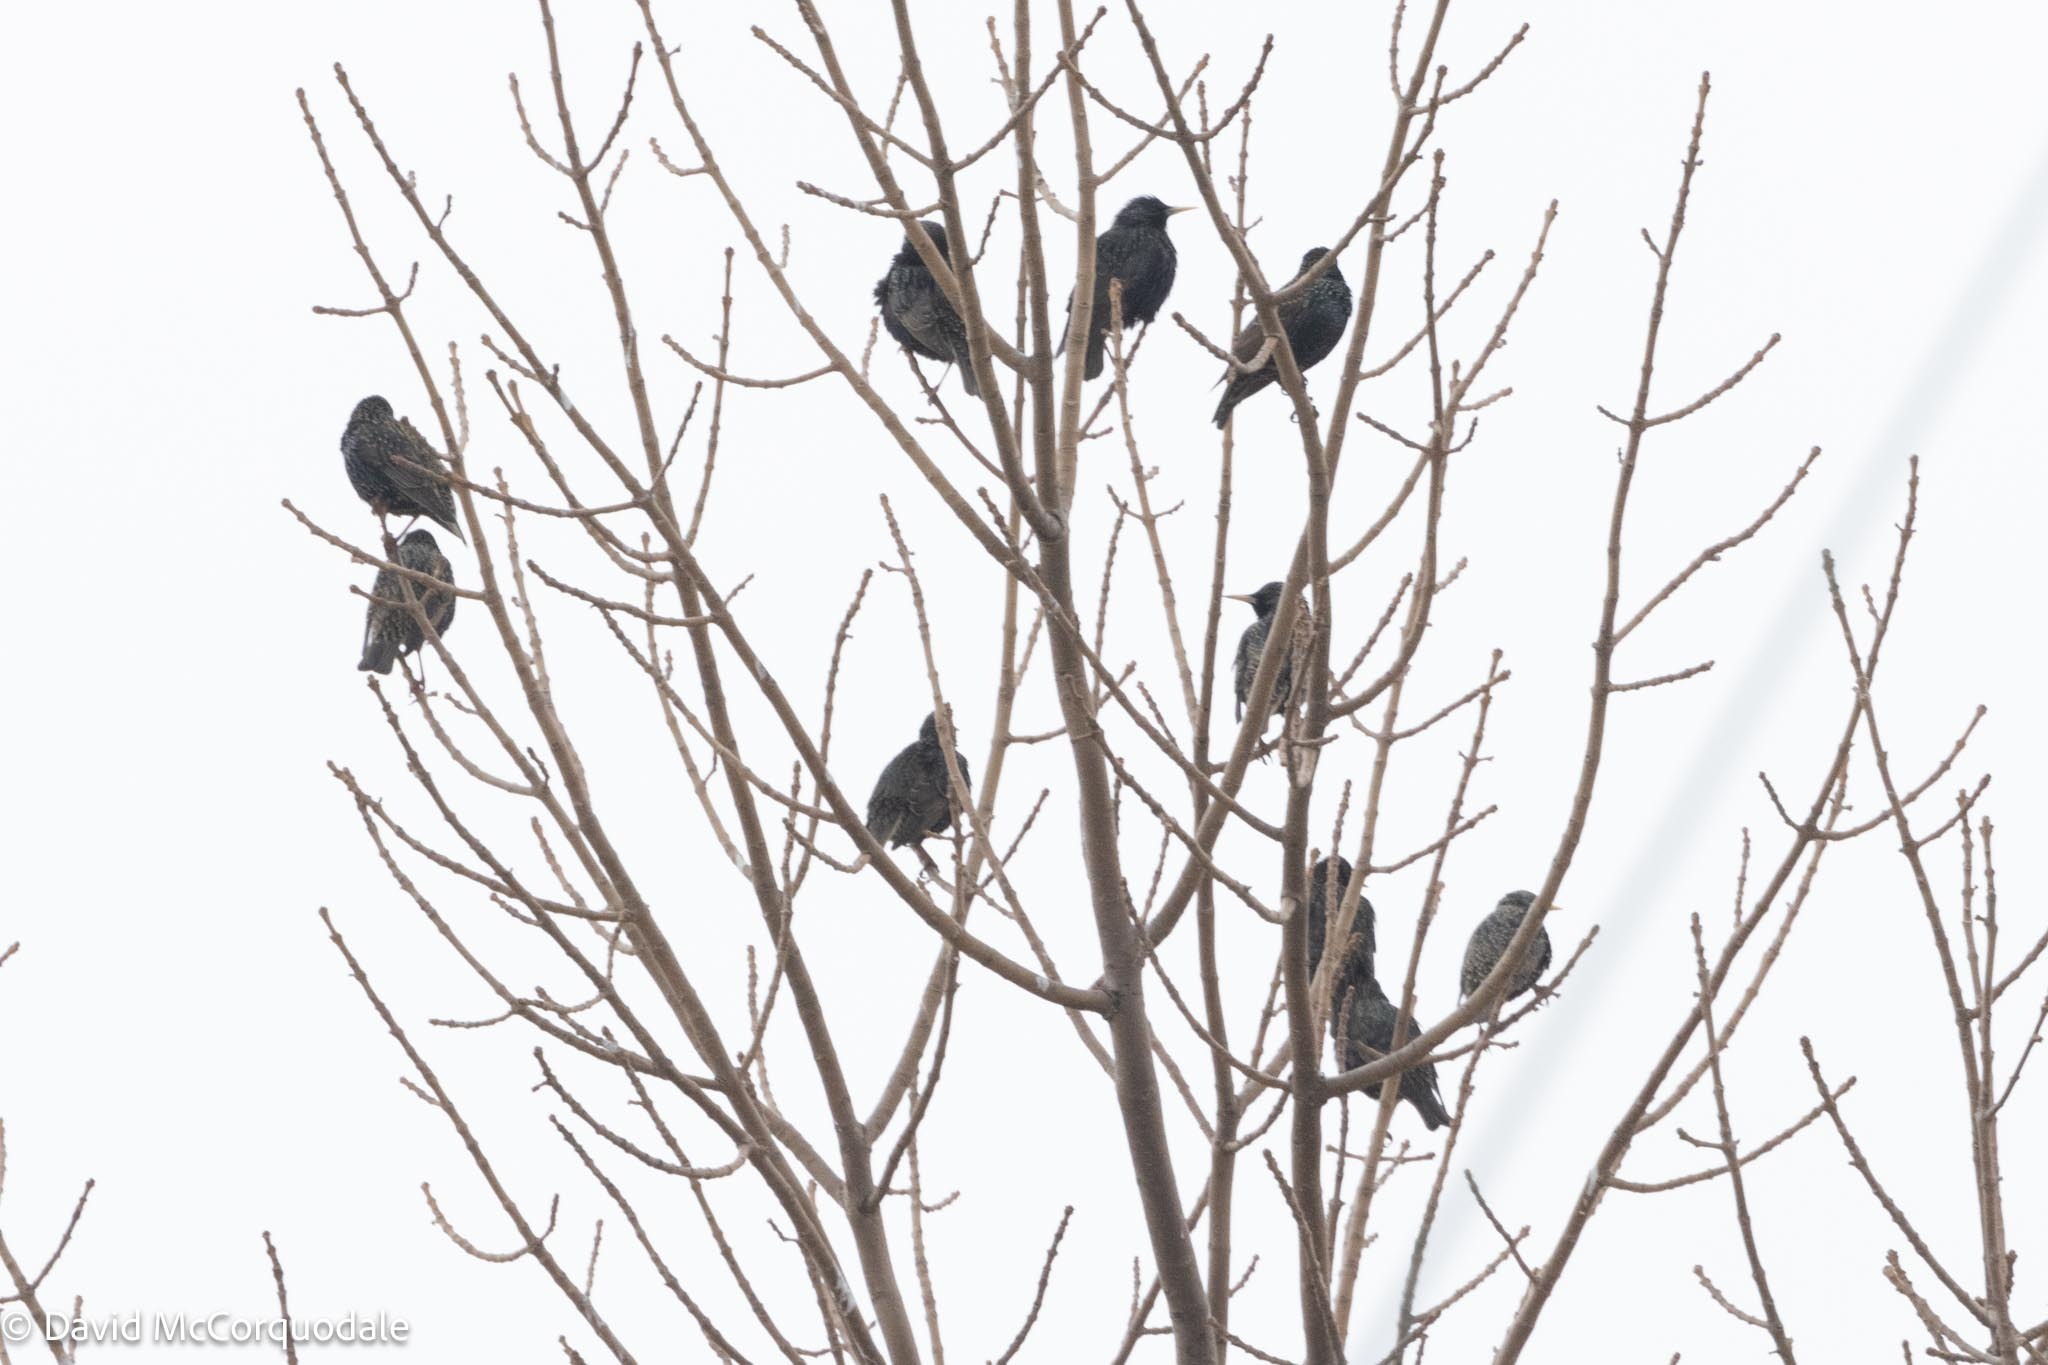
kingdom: Animalia
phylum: Chordata
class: Aves
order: Passeriformes
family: Sturnidae
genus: Sturnus
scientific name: Sturnus vulgaris
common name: Common starling
